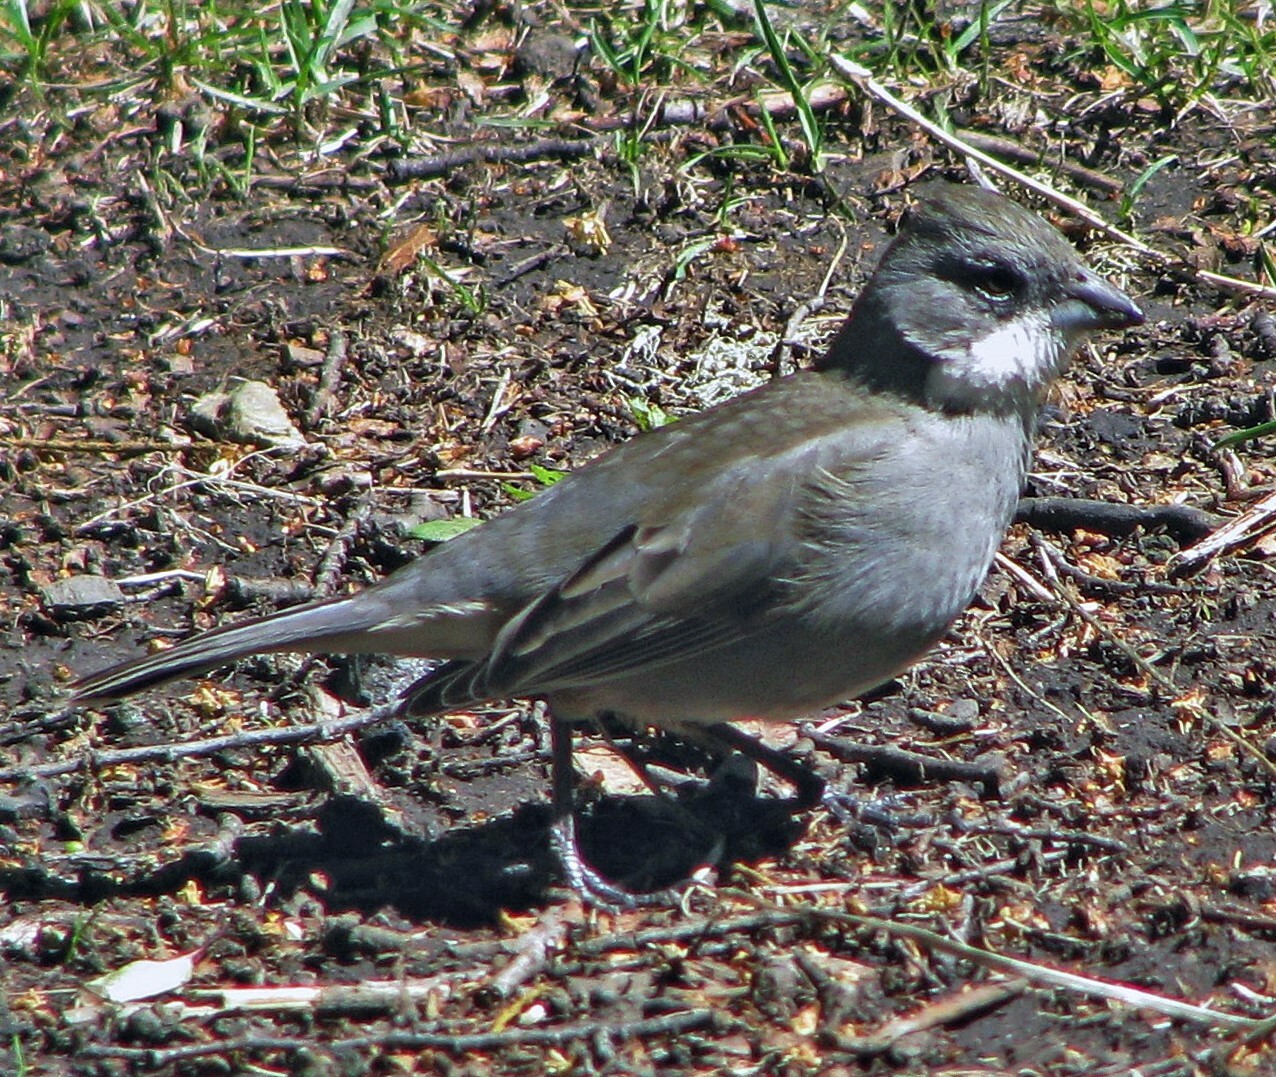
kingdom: Animalia
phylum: Chordata
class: Aves
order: Passeriformes
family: Thraupidae
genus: Diuca
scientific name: Diuca diuca
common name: Common diuca finch
